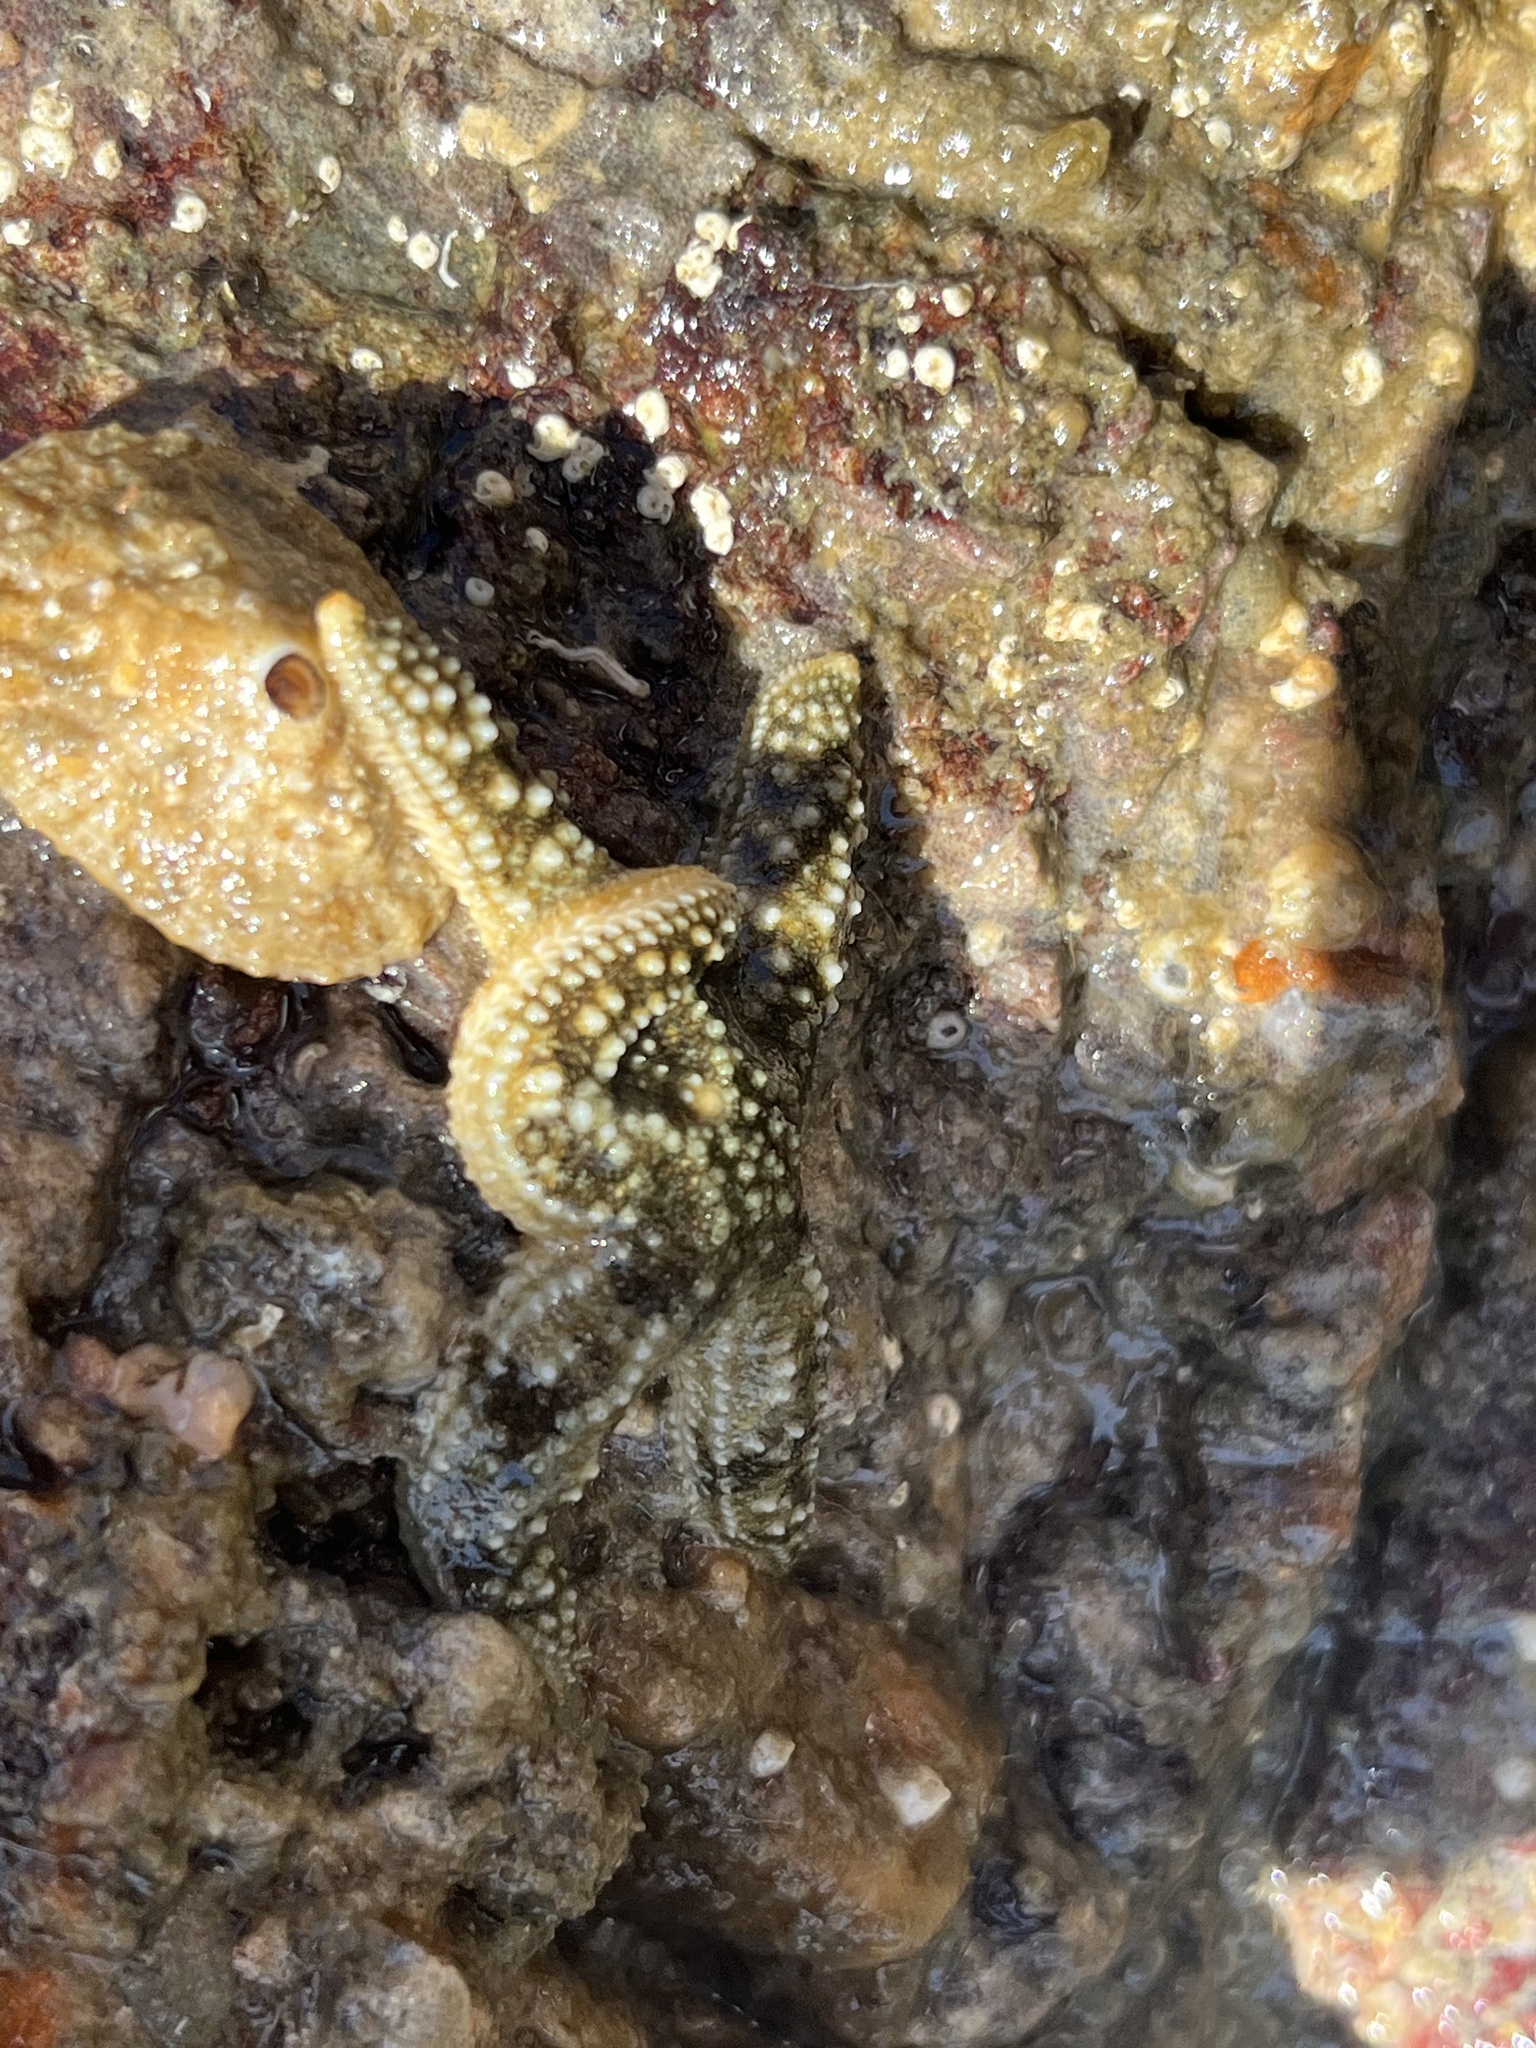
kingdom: Animalia
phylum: Echinodermata
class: Asteroidea
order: Forcipulatida
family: Asteriidae
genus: Evasterias
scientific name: Evasterias troschelii
